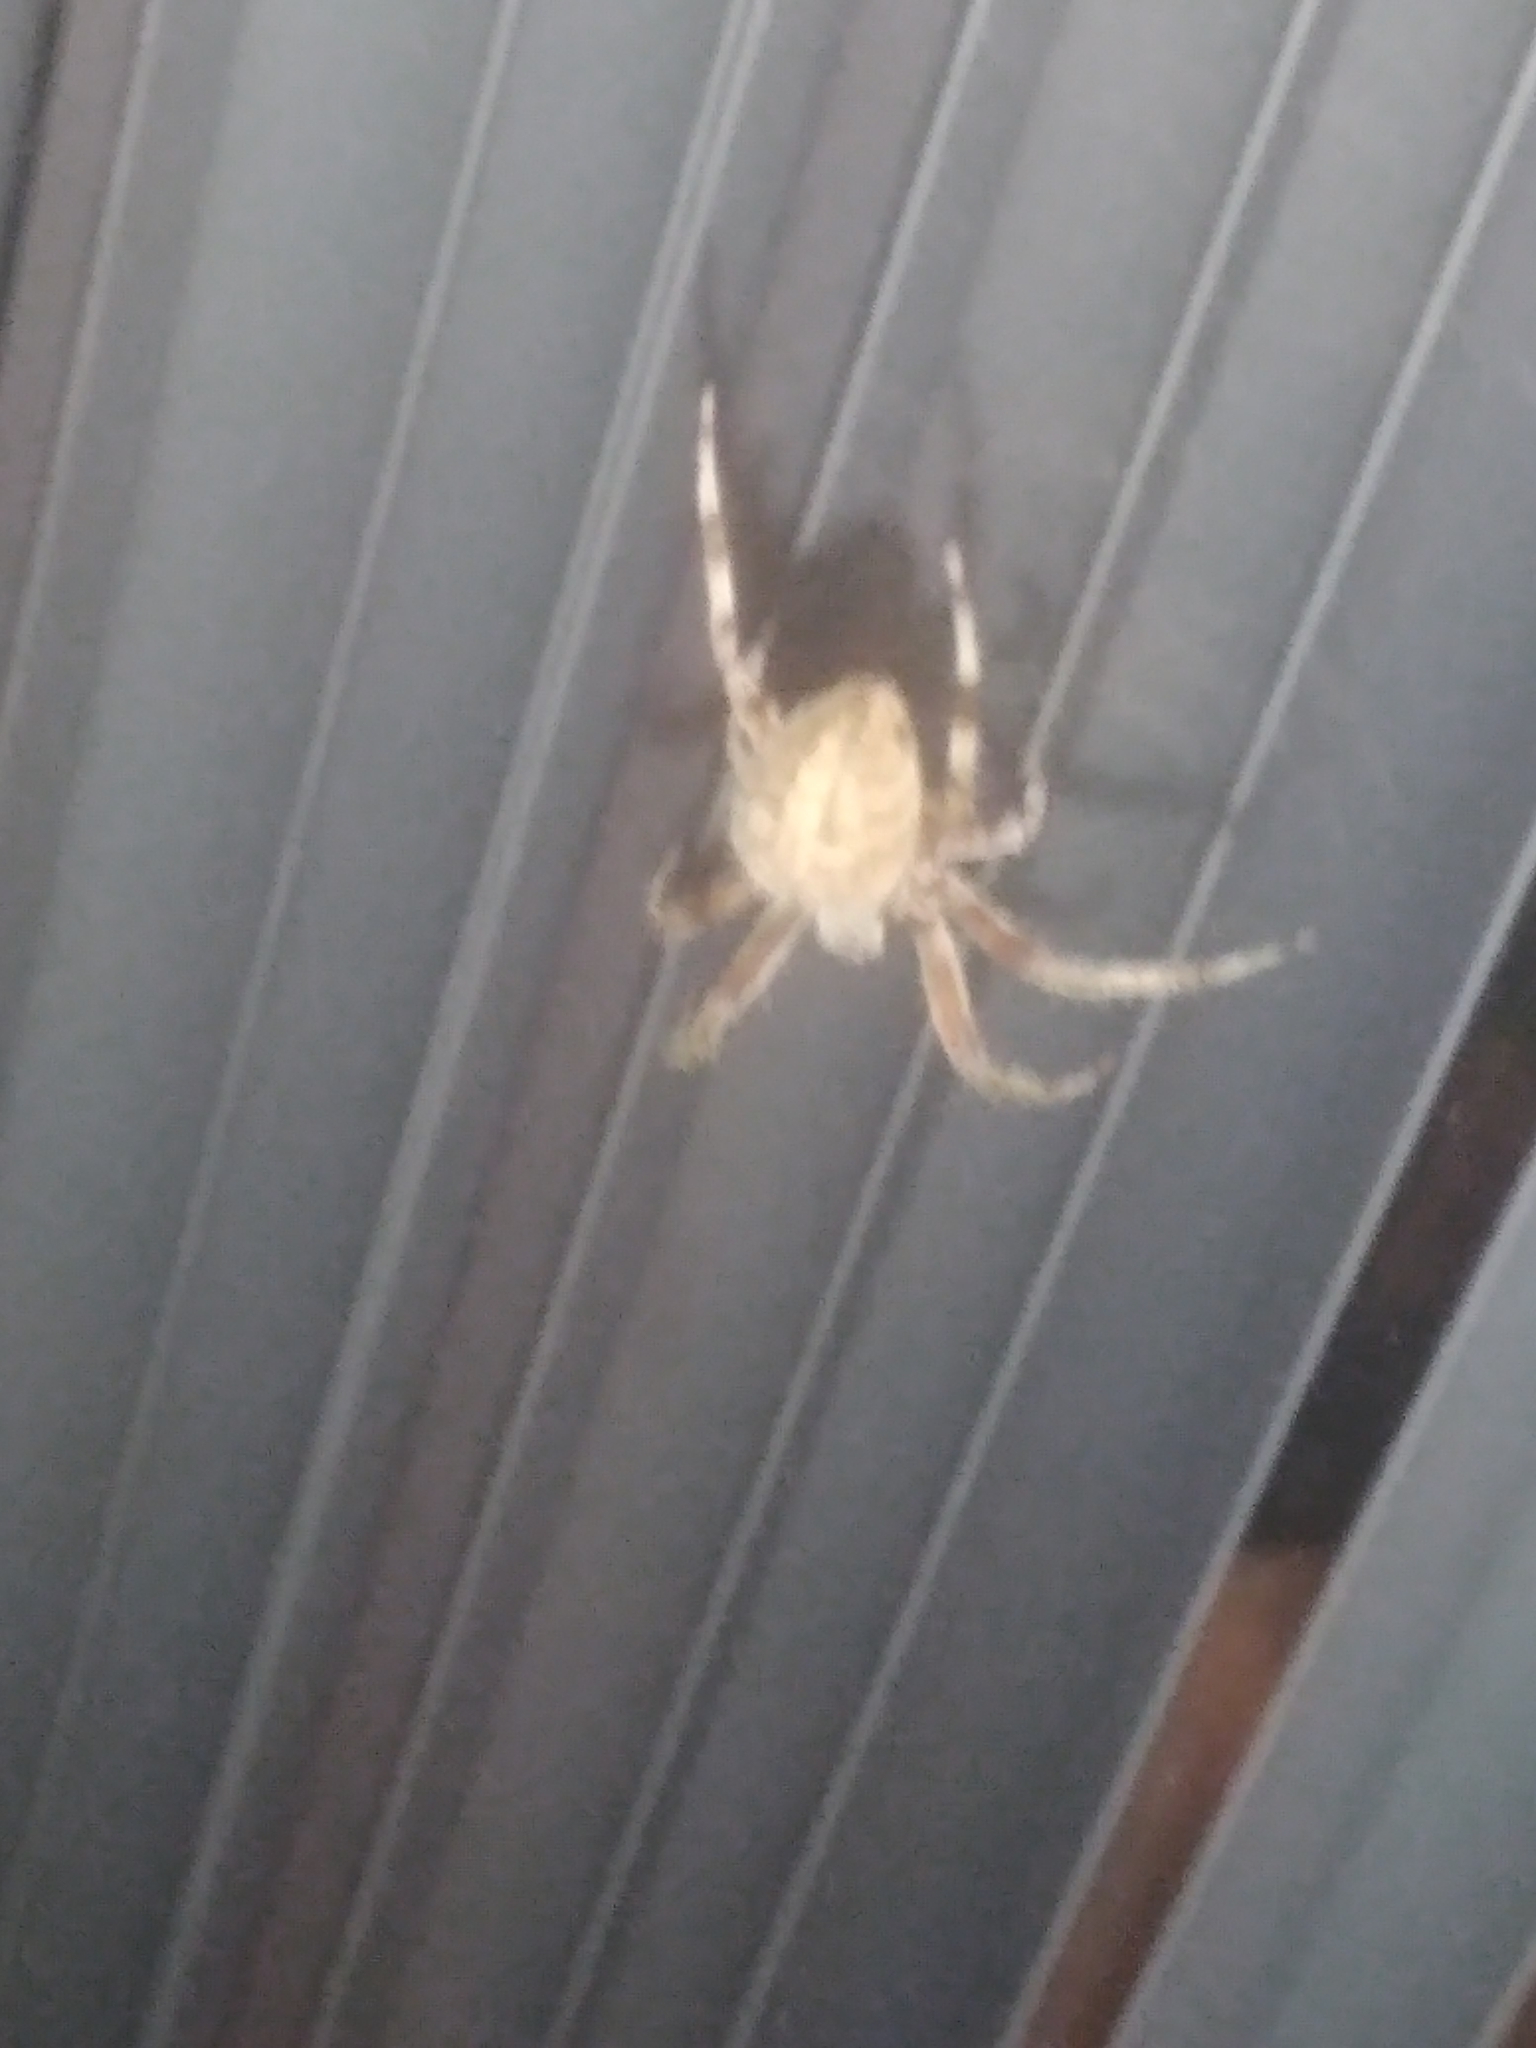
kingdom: Animalia
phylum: Arthropoda
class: Arachnida
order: Araneae
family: Araneidae
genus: Neoscona
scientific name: Neoscona crucifera
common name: Spotted orbweaver
